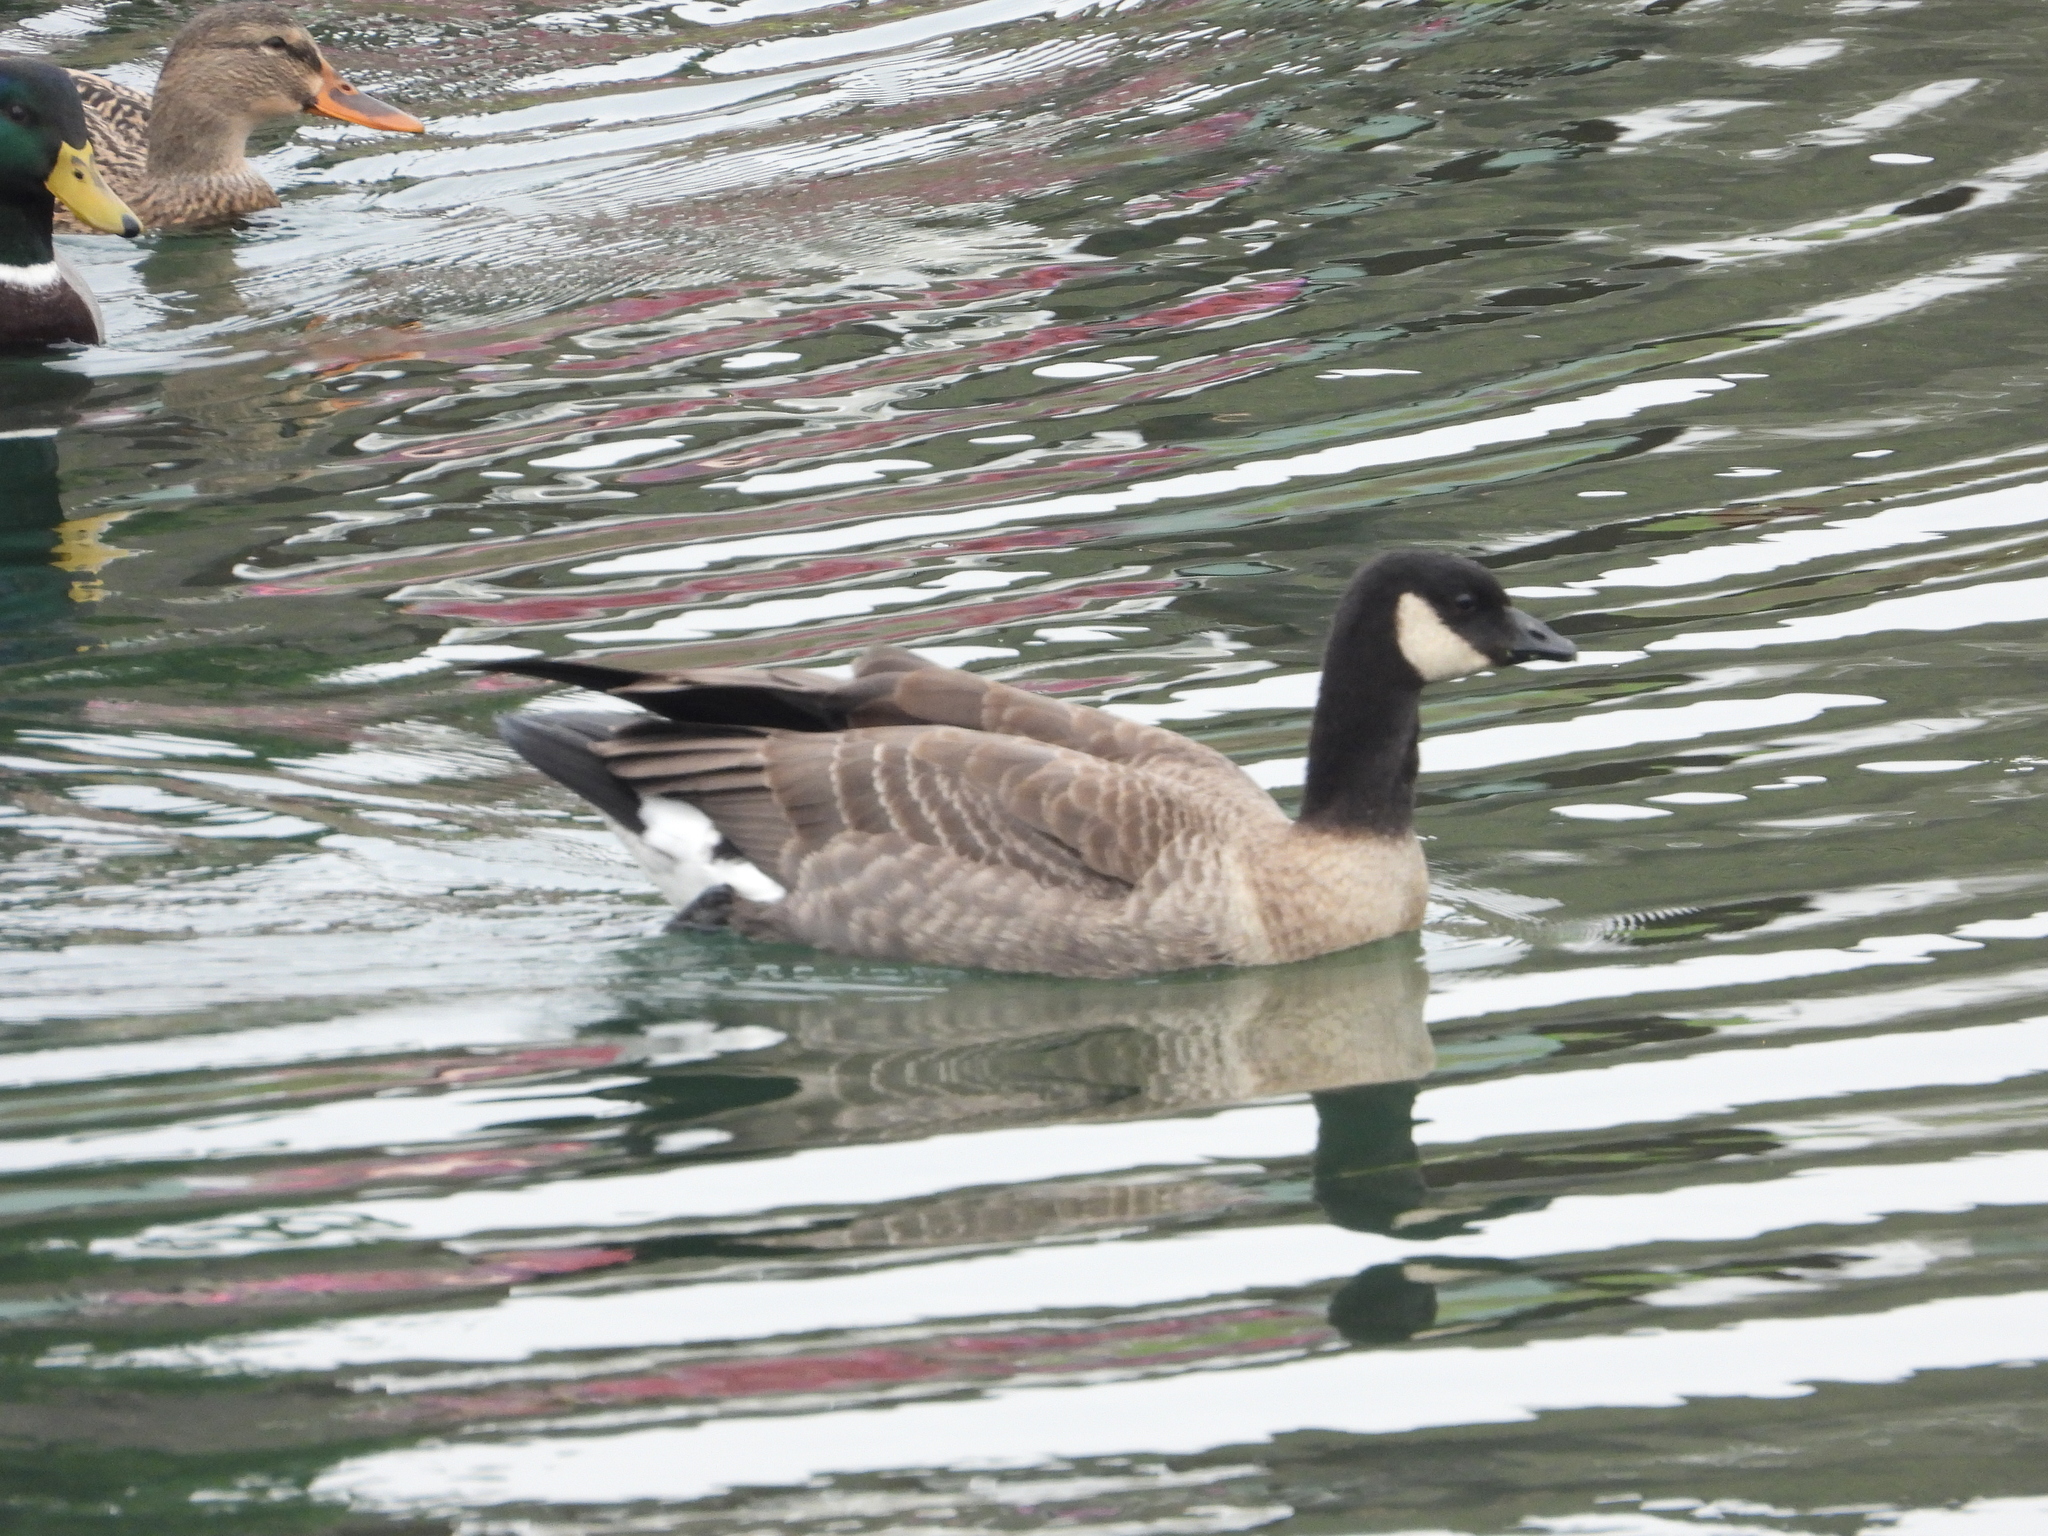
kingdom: Animalia
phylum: Chordata
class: Aves
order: Anseriformes
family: Anatidae
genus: Branta
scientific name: Branta hutchinsii
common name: Cackling goose
